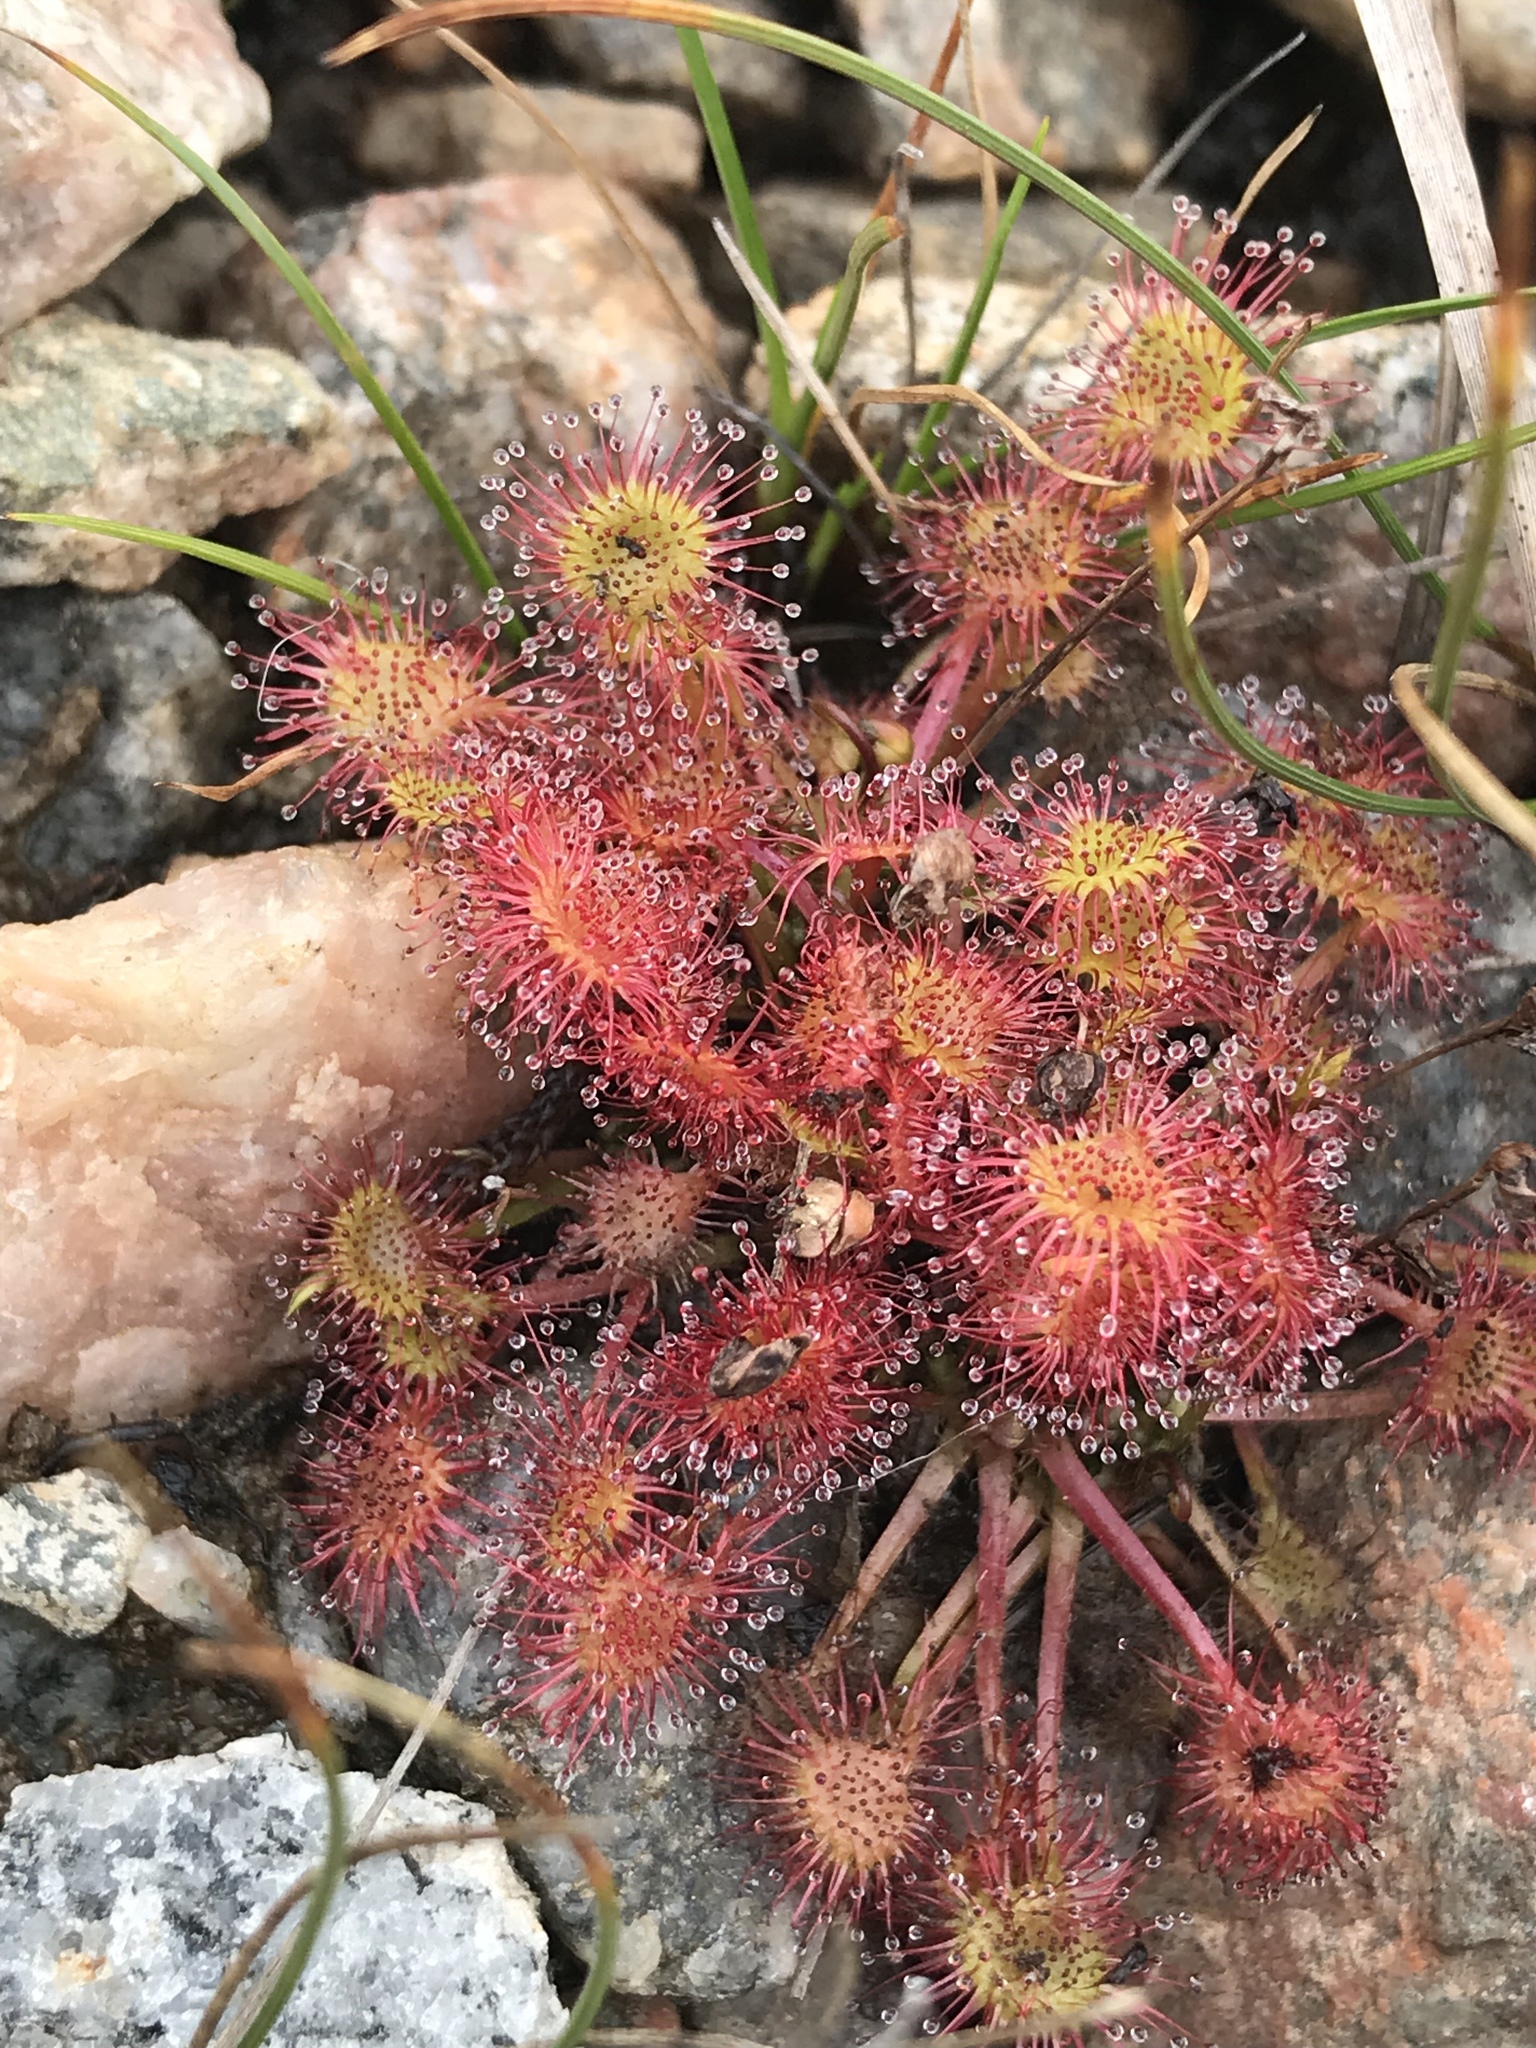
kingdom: Plantae
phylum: Tracheophyta
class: Magnoliopsida
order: Caryophyllales
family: Droseraceae
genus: Drosera
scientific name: Drosera rotundifolia
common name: Round-leaved sundew
